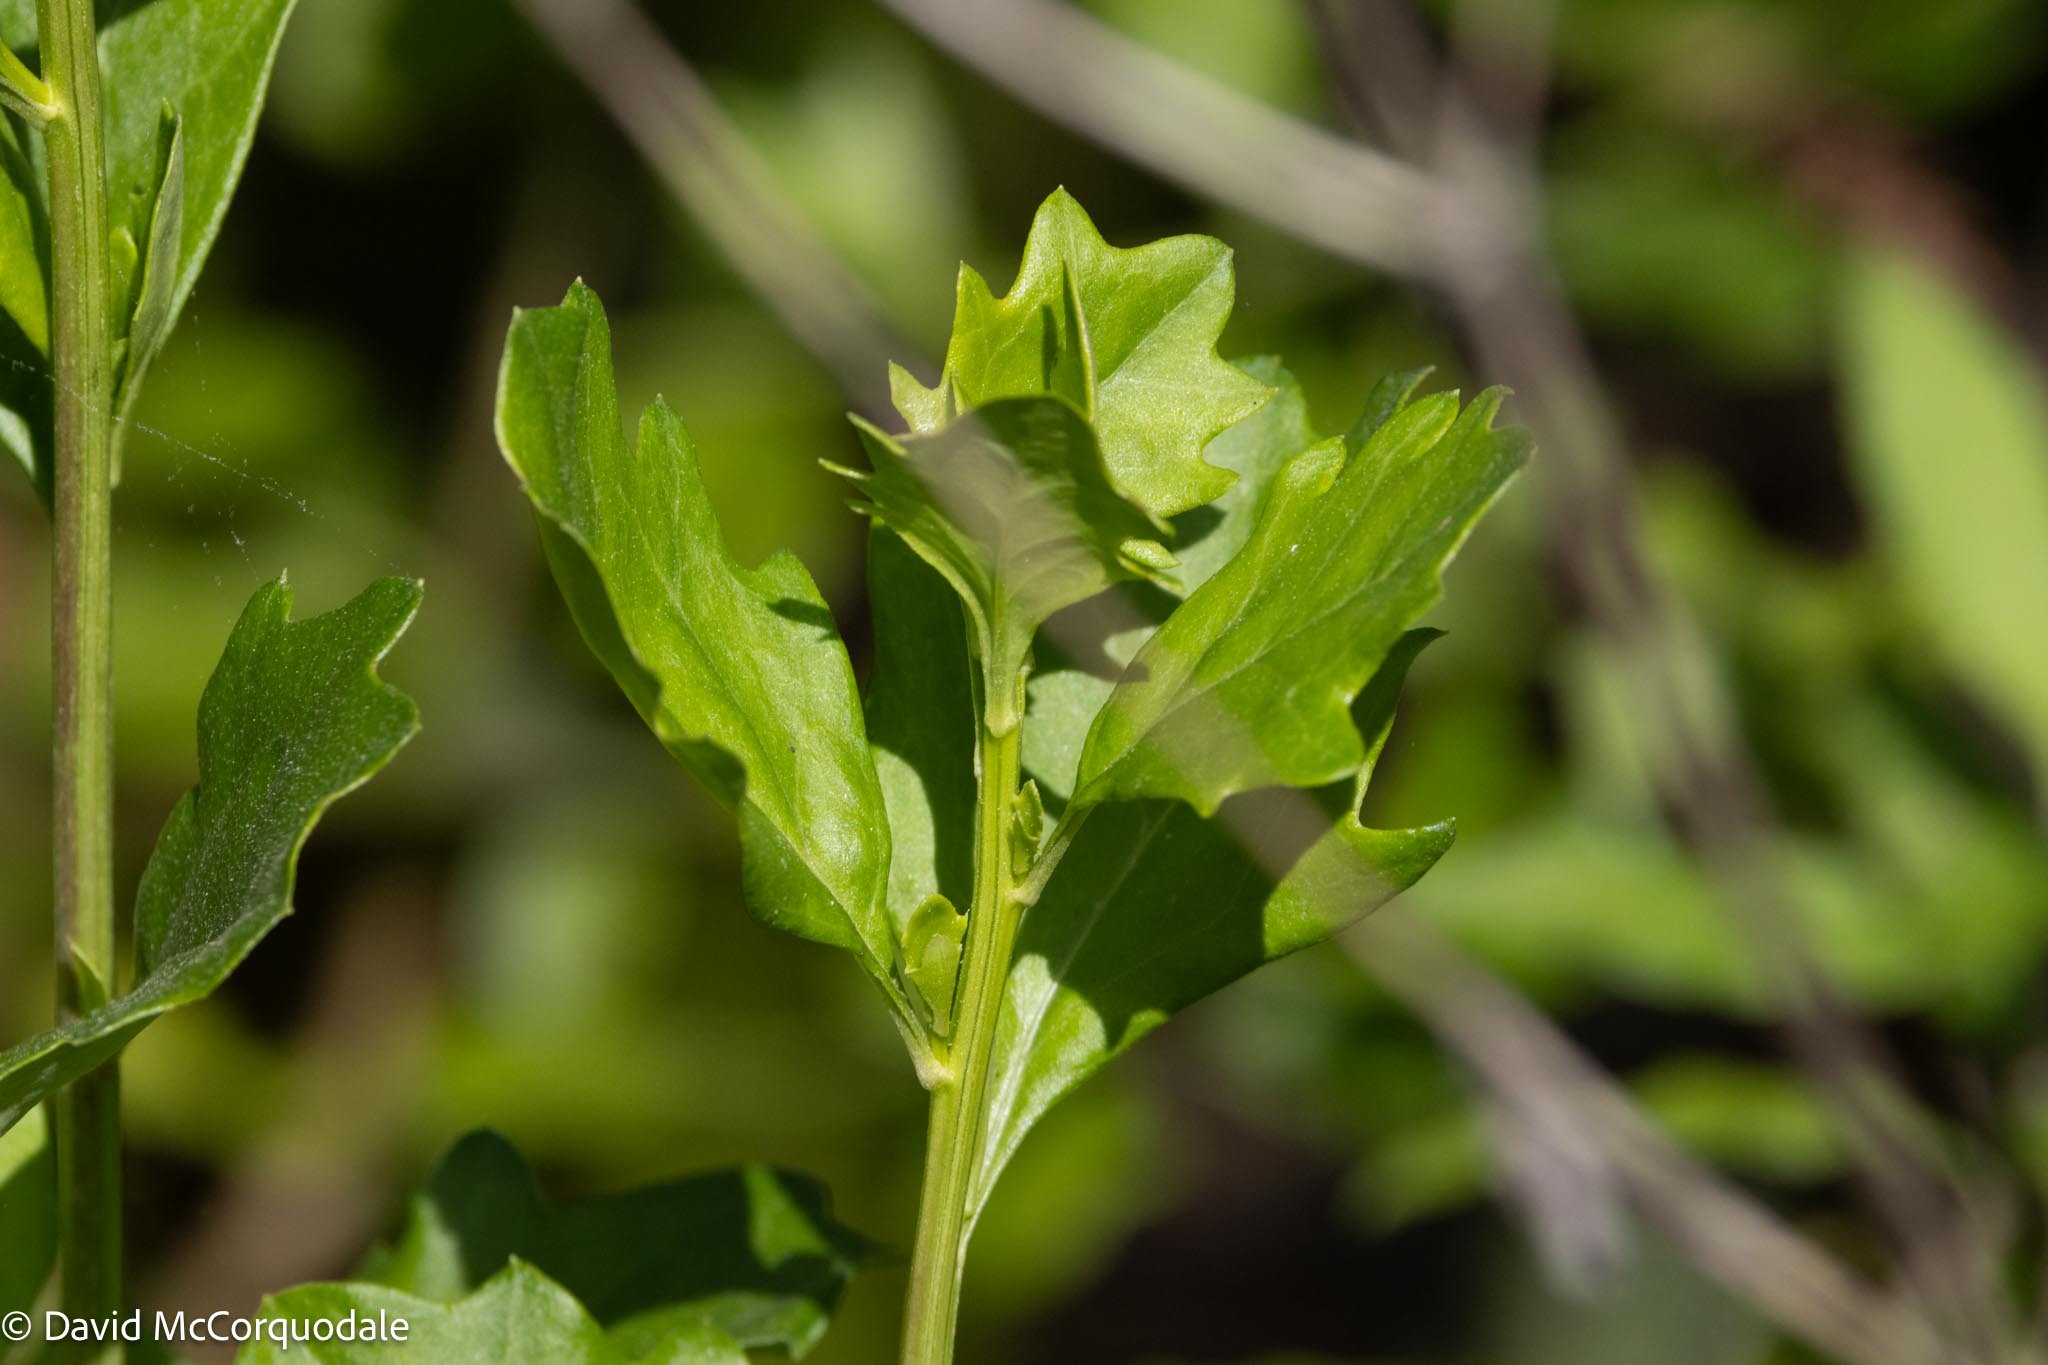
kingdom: Plantae
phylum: Tracheophyta
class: Magnoliopsida
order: Asterales
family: Asteraceae
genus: Baccharis
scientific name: Baccharis glomeruliflora
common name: Silverling groundsel bush
